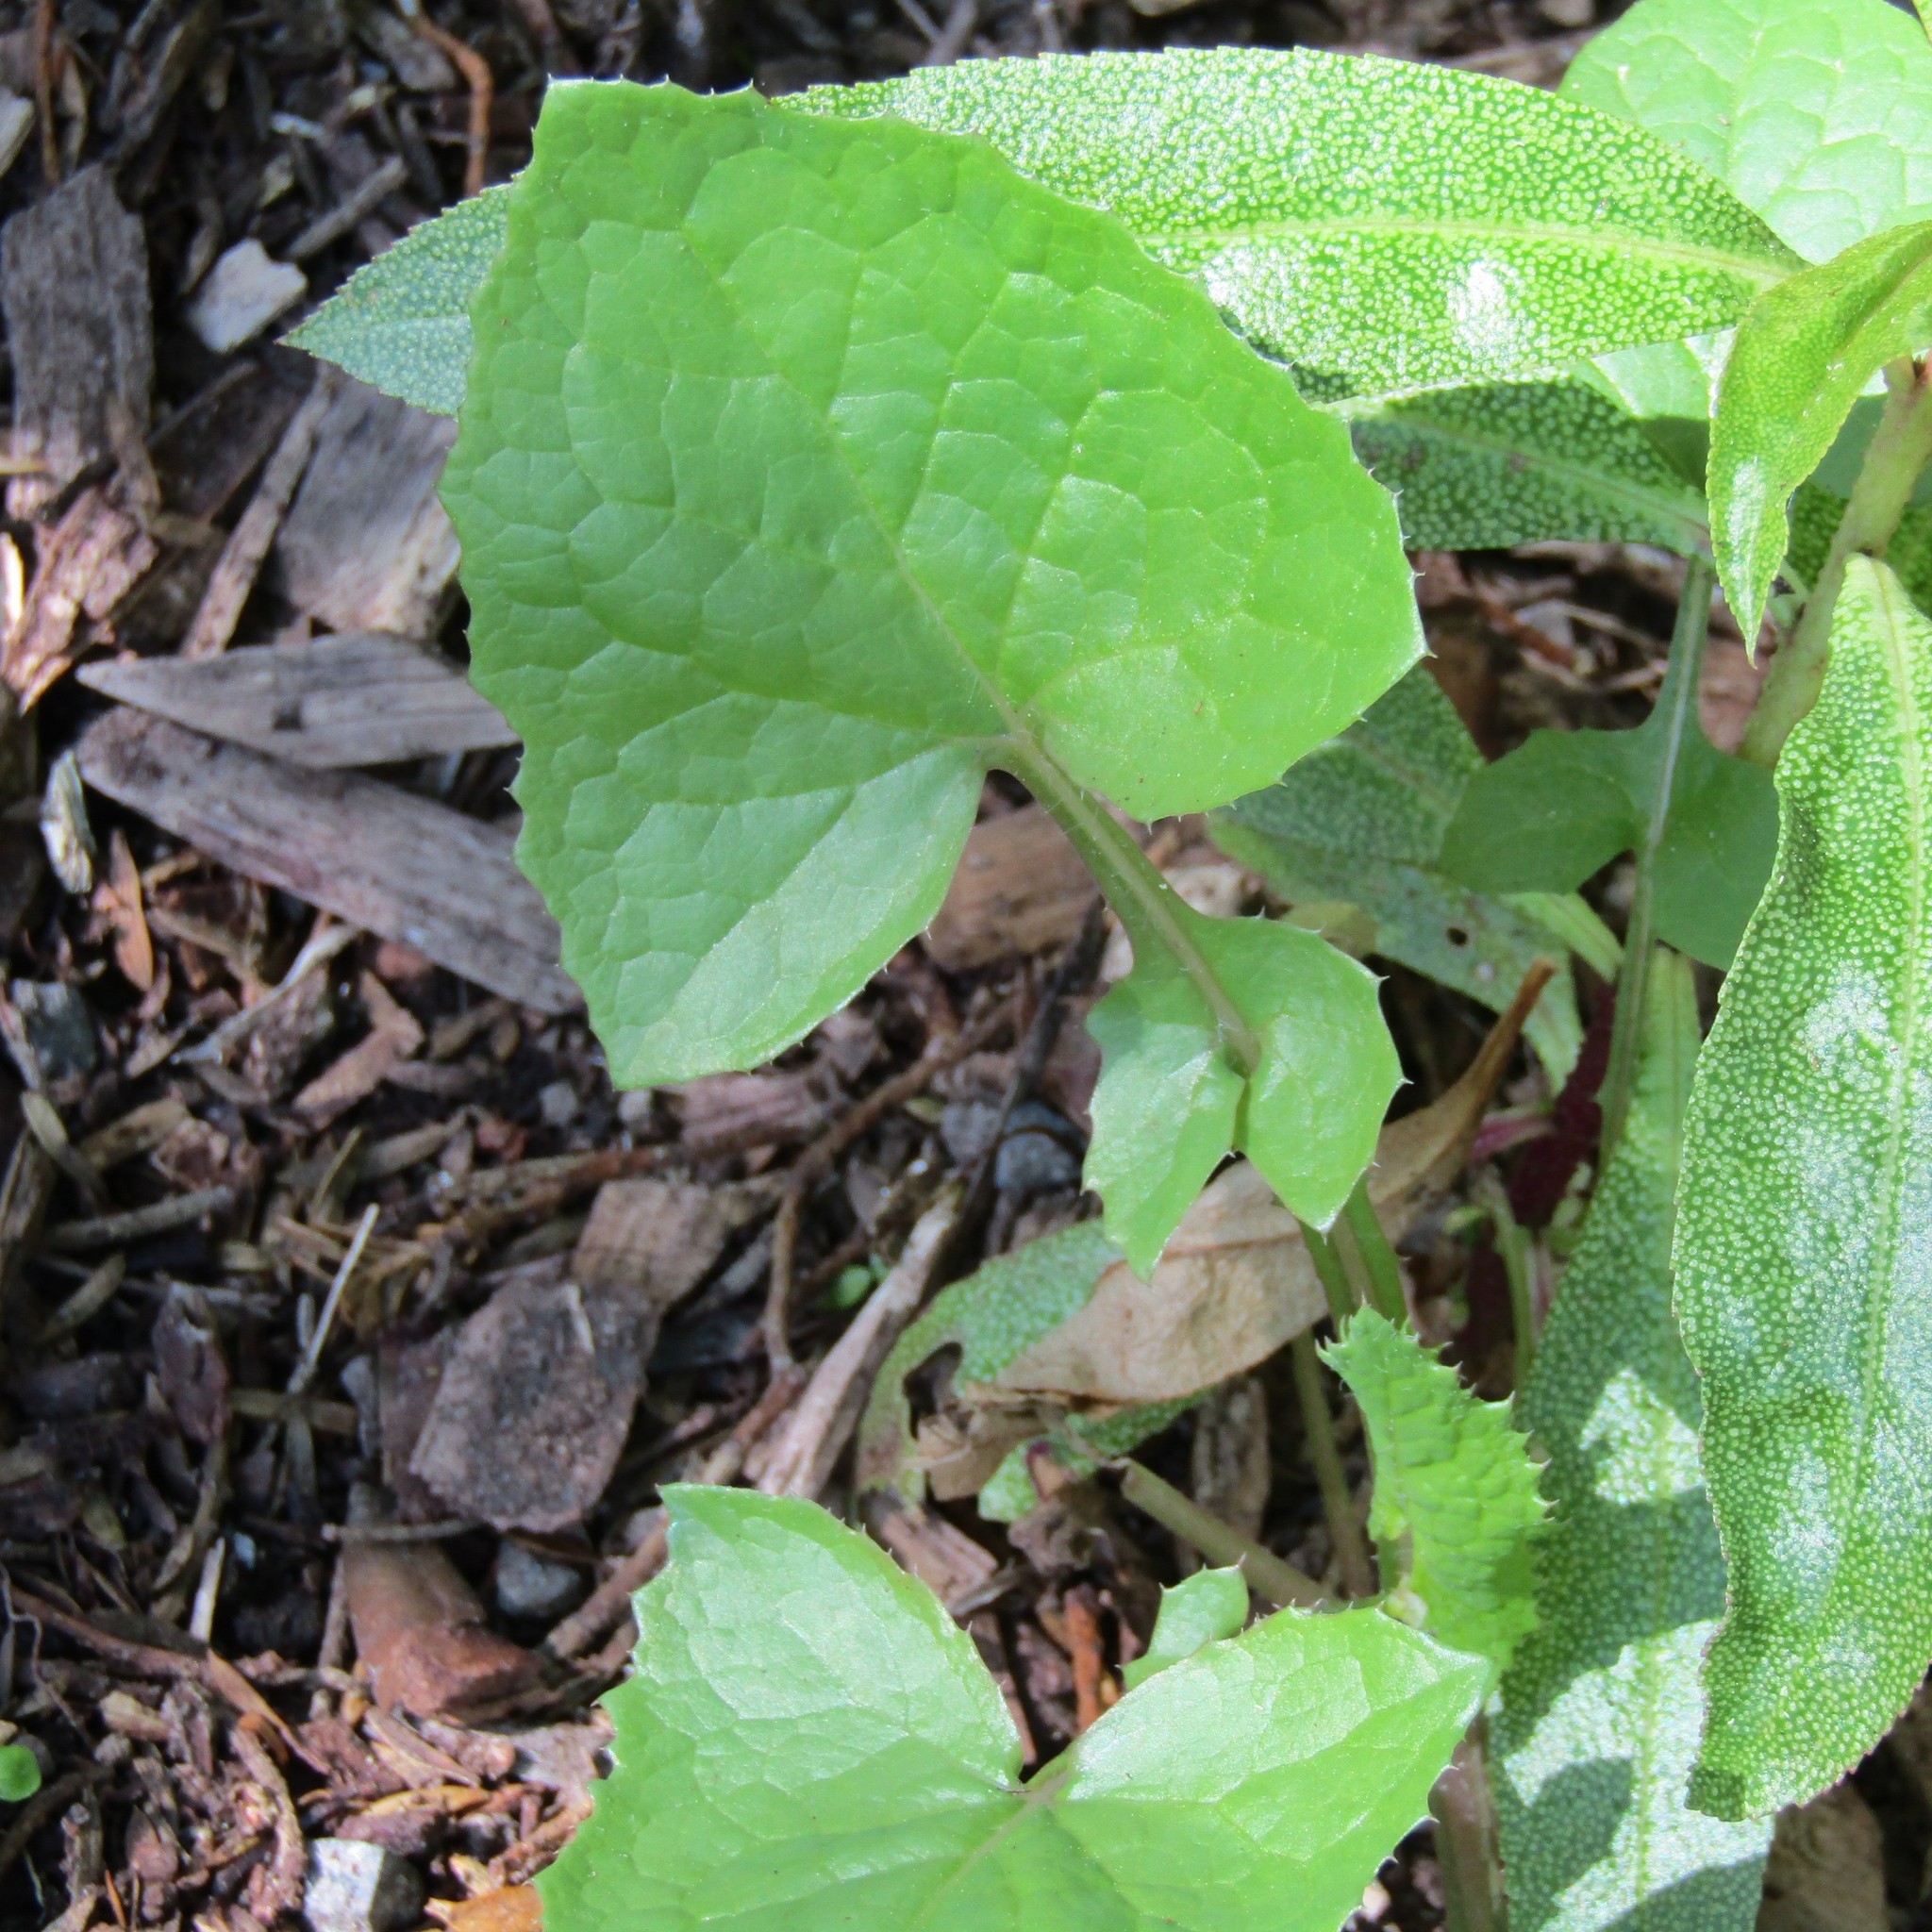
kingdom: Plantae
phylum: Tracheophyta
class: Magnoliopsida
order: Asterales
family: Asteraceae
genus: Sonchus
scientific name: Sonchus oleraceus
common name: Common sowthistle
